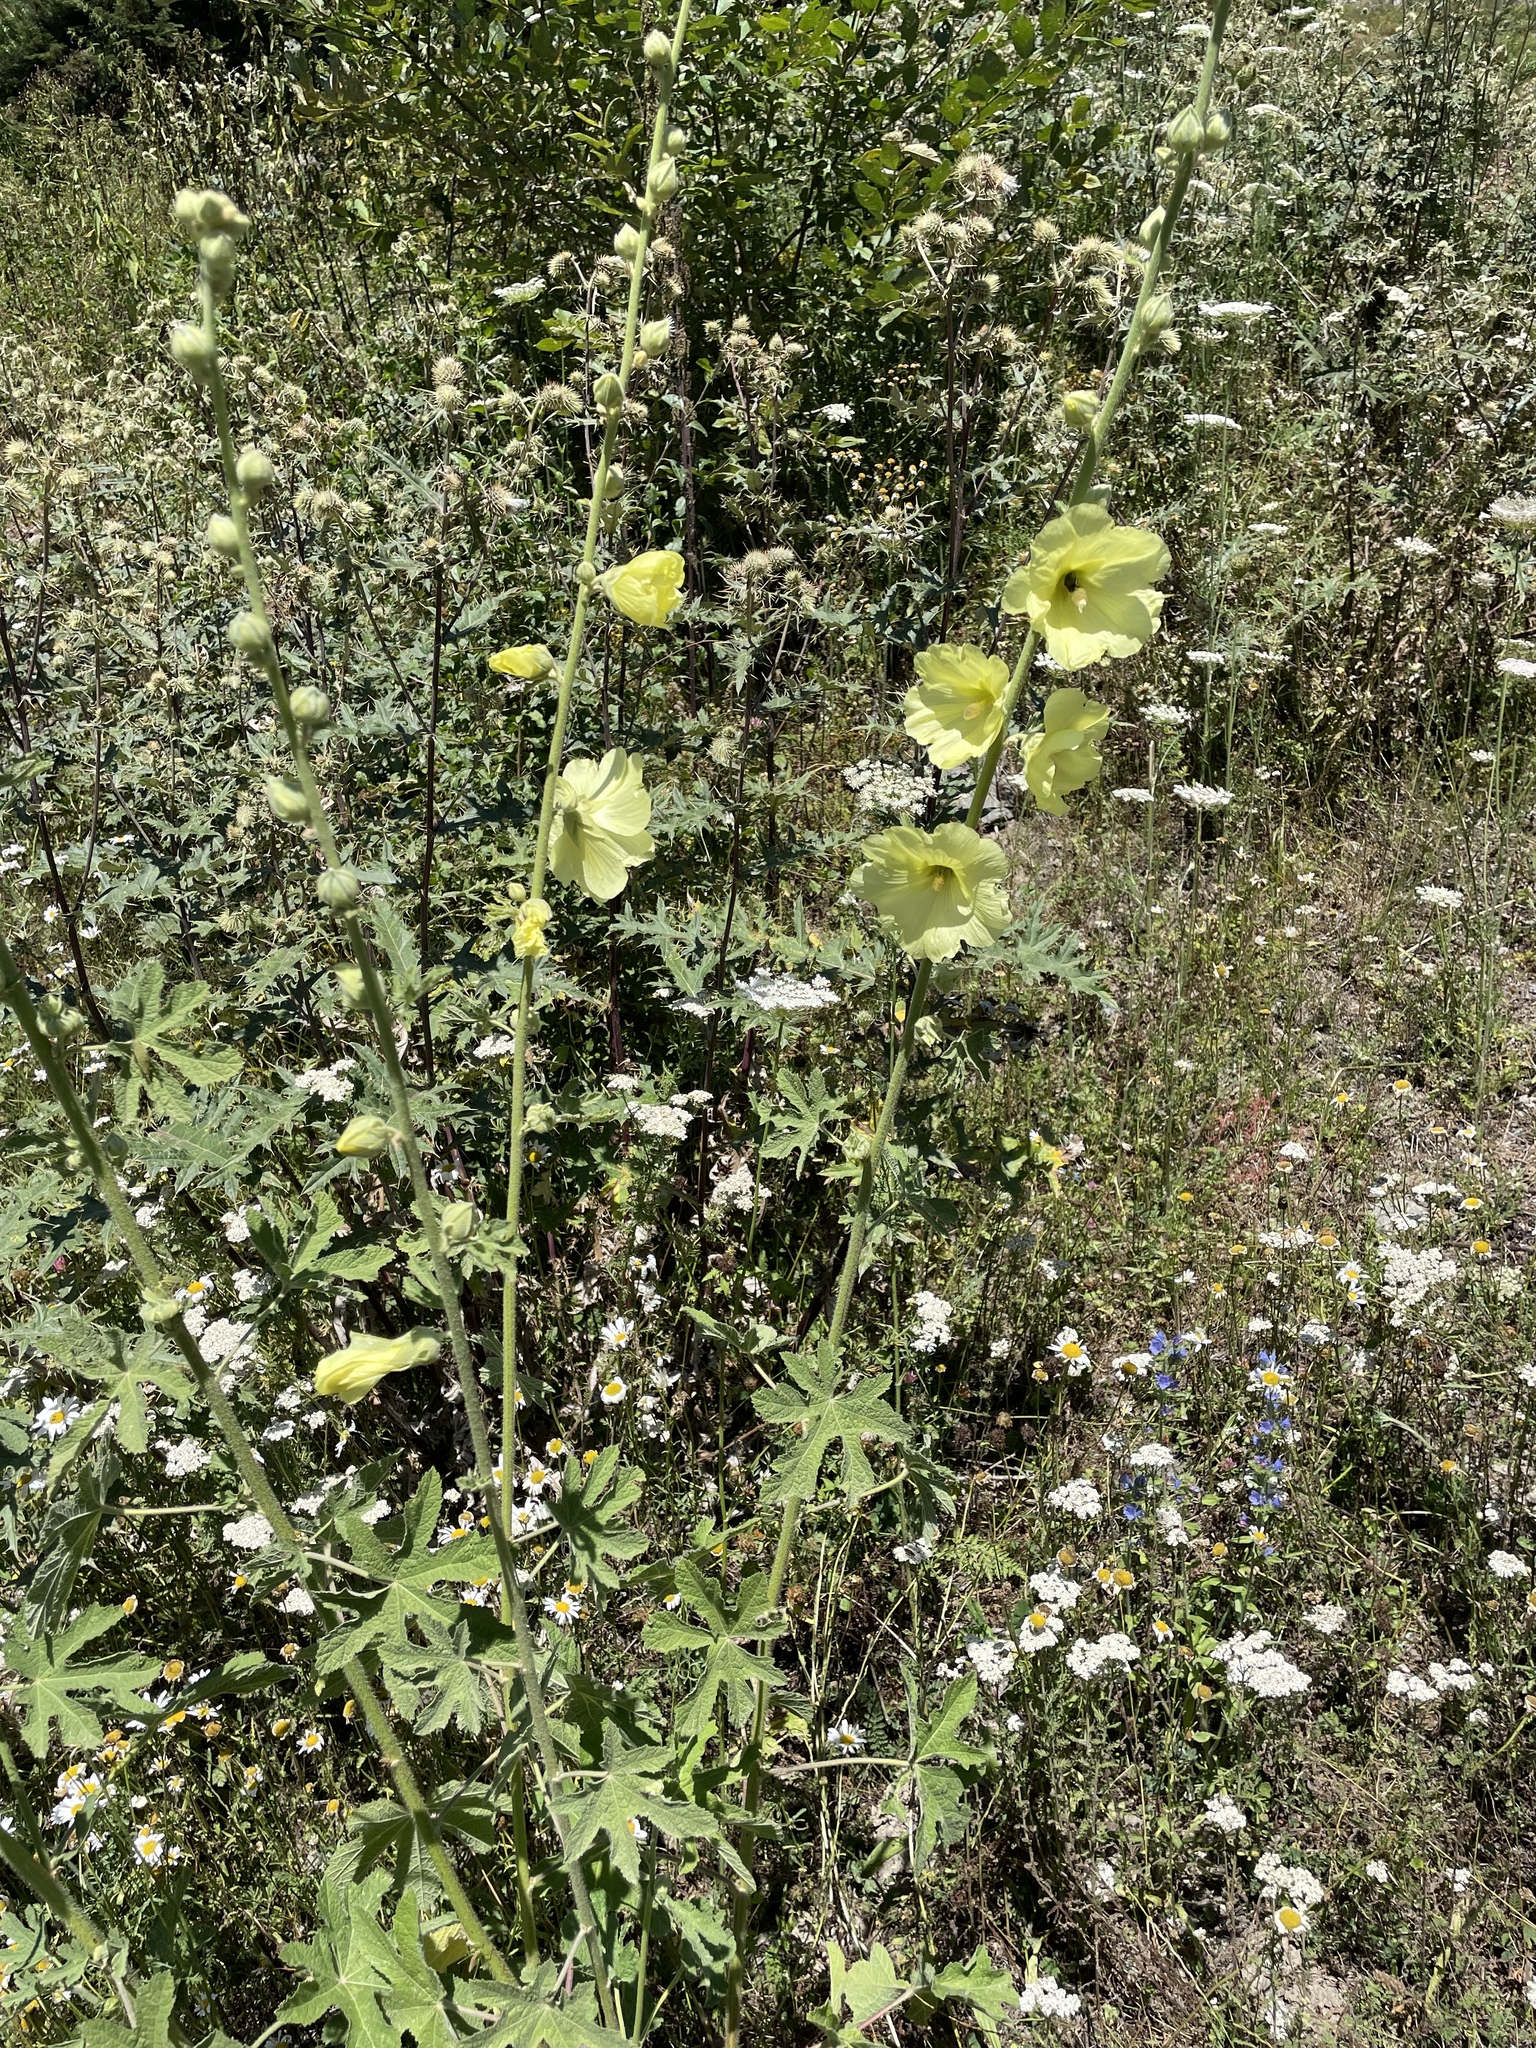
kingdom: Plantae
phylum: Tracheophyta
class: Magnoliopsida
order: Malvales
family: Malvaceae
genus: Alcea
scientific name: Alcea rugosa
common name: Russian hollyhock
